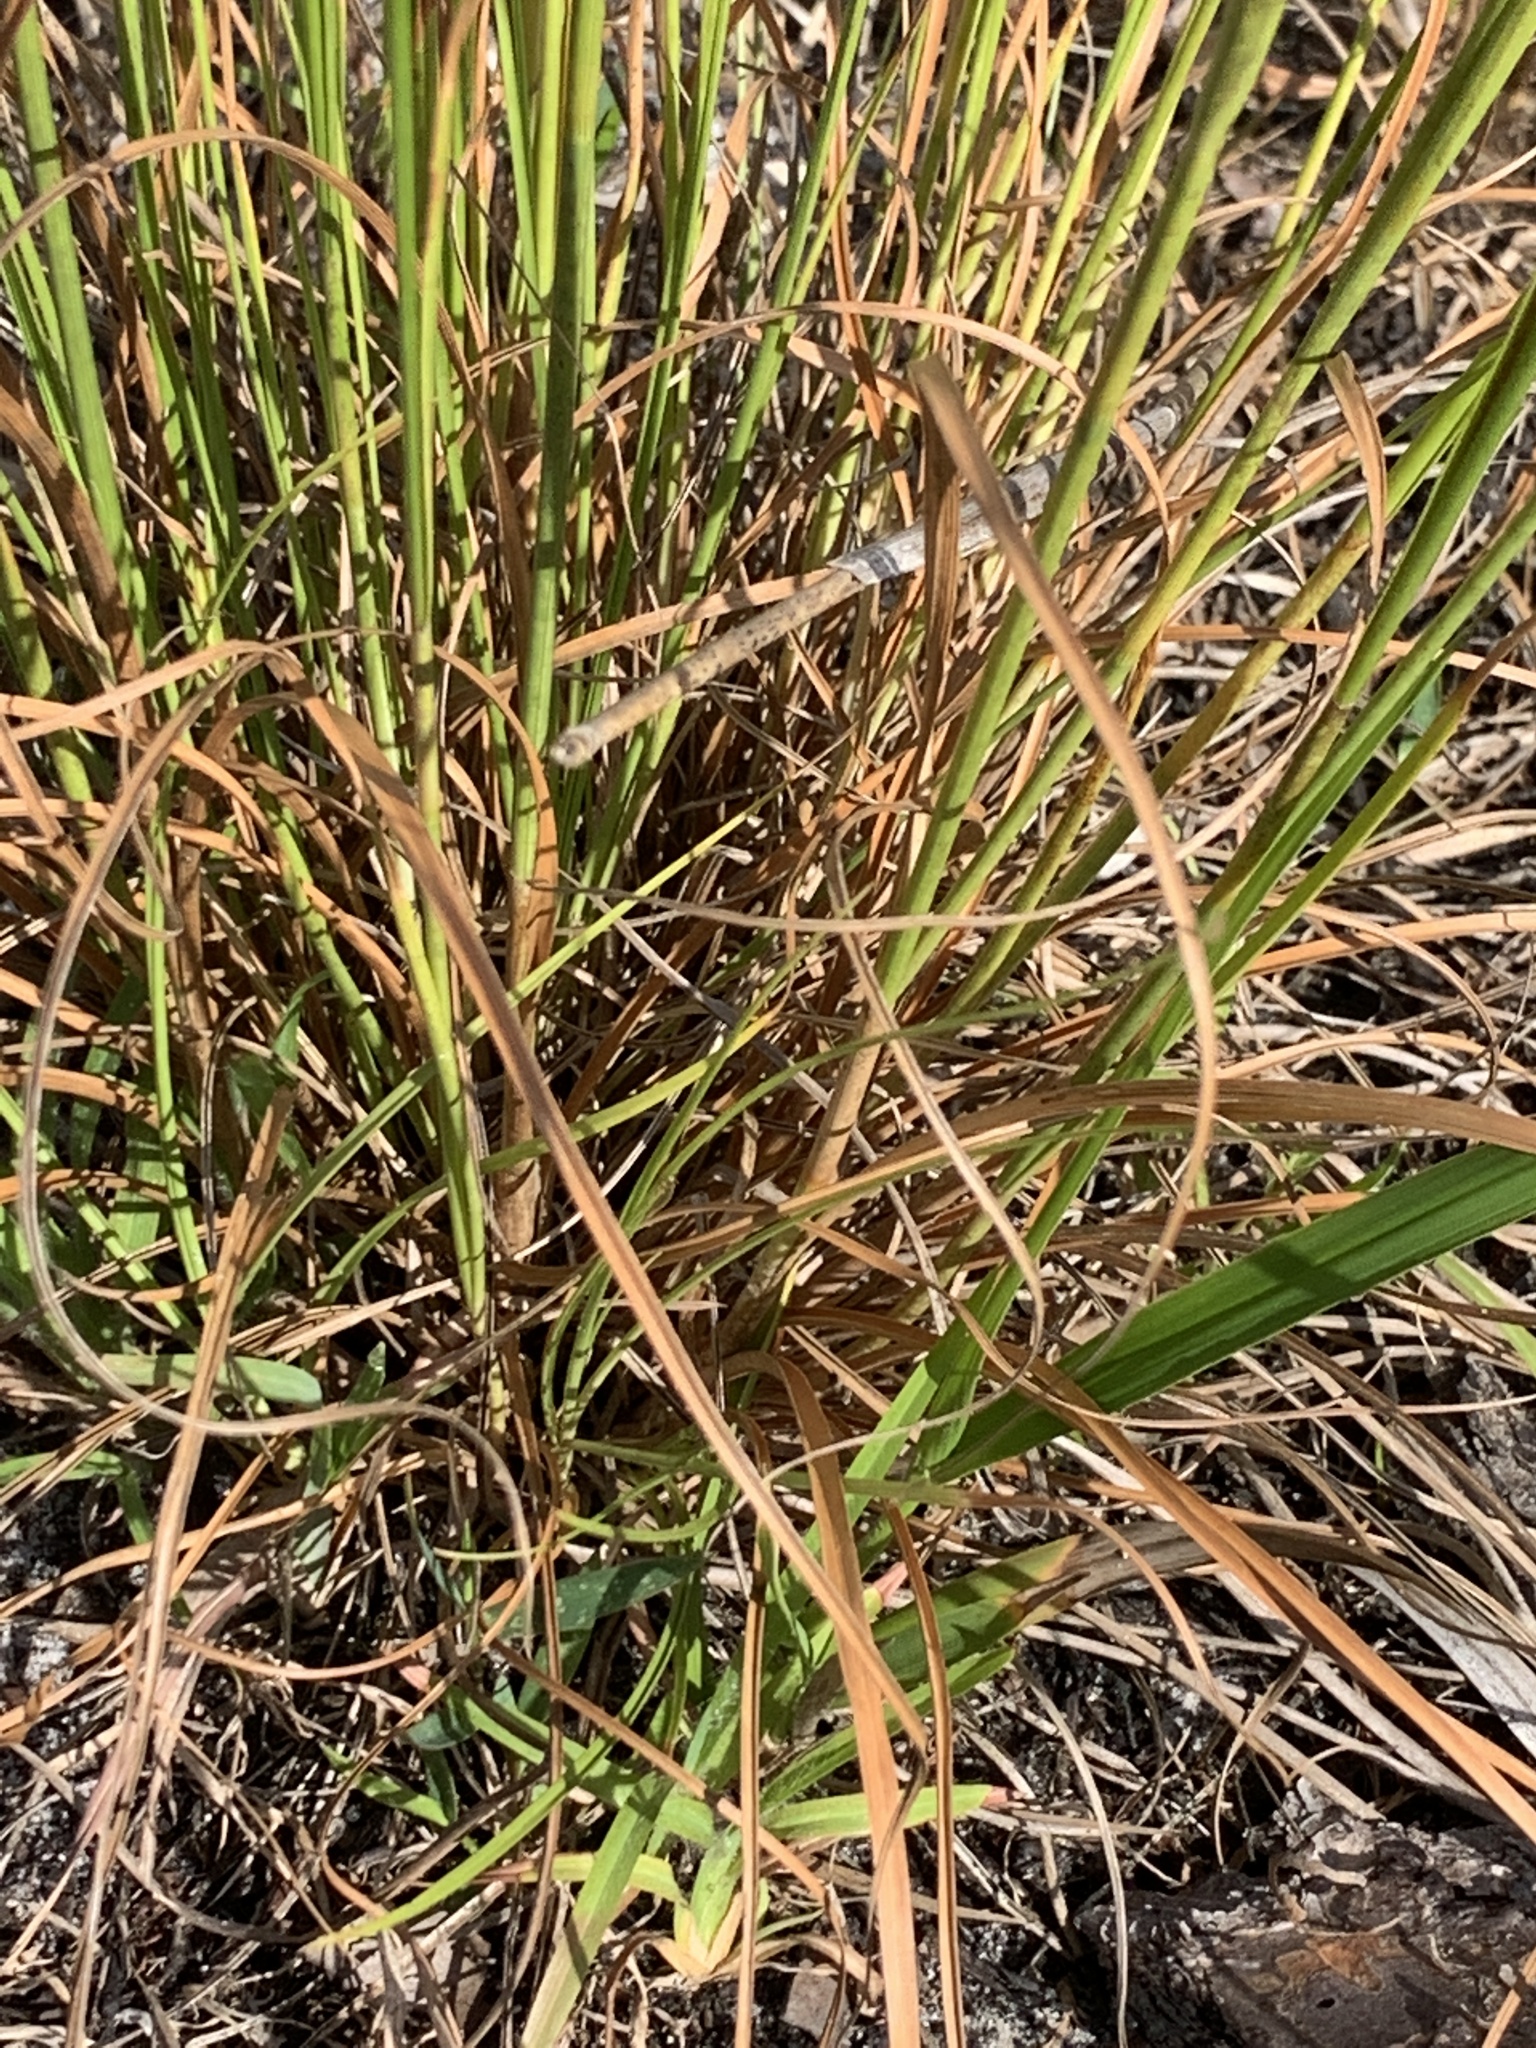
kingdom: Plantae
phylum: Tracheophyta
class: Liliopsida
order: Poales
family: Cyperaceae
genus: Rhynchospora
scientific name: Rhynchospora fascicularis
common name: Fascicled beak sedge
